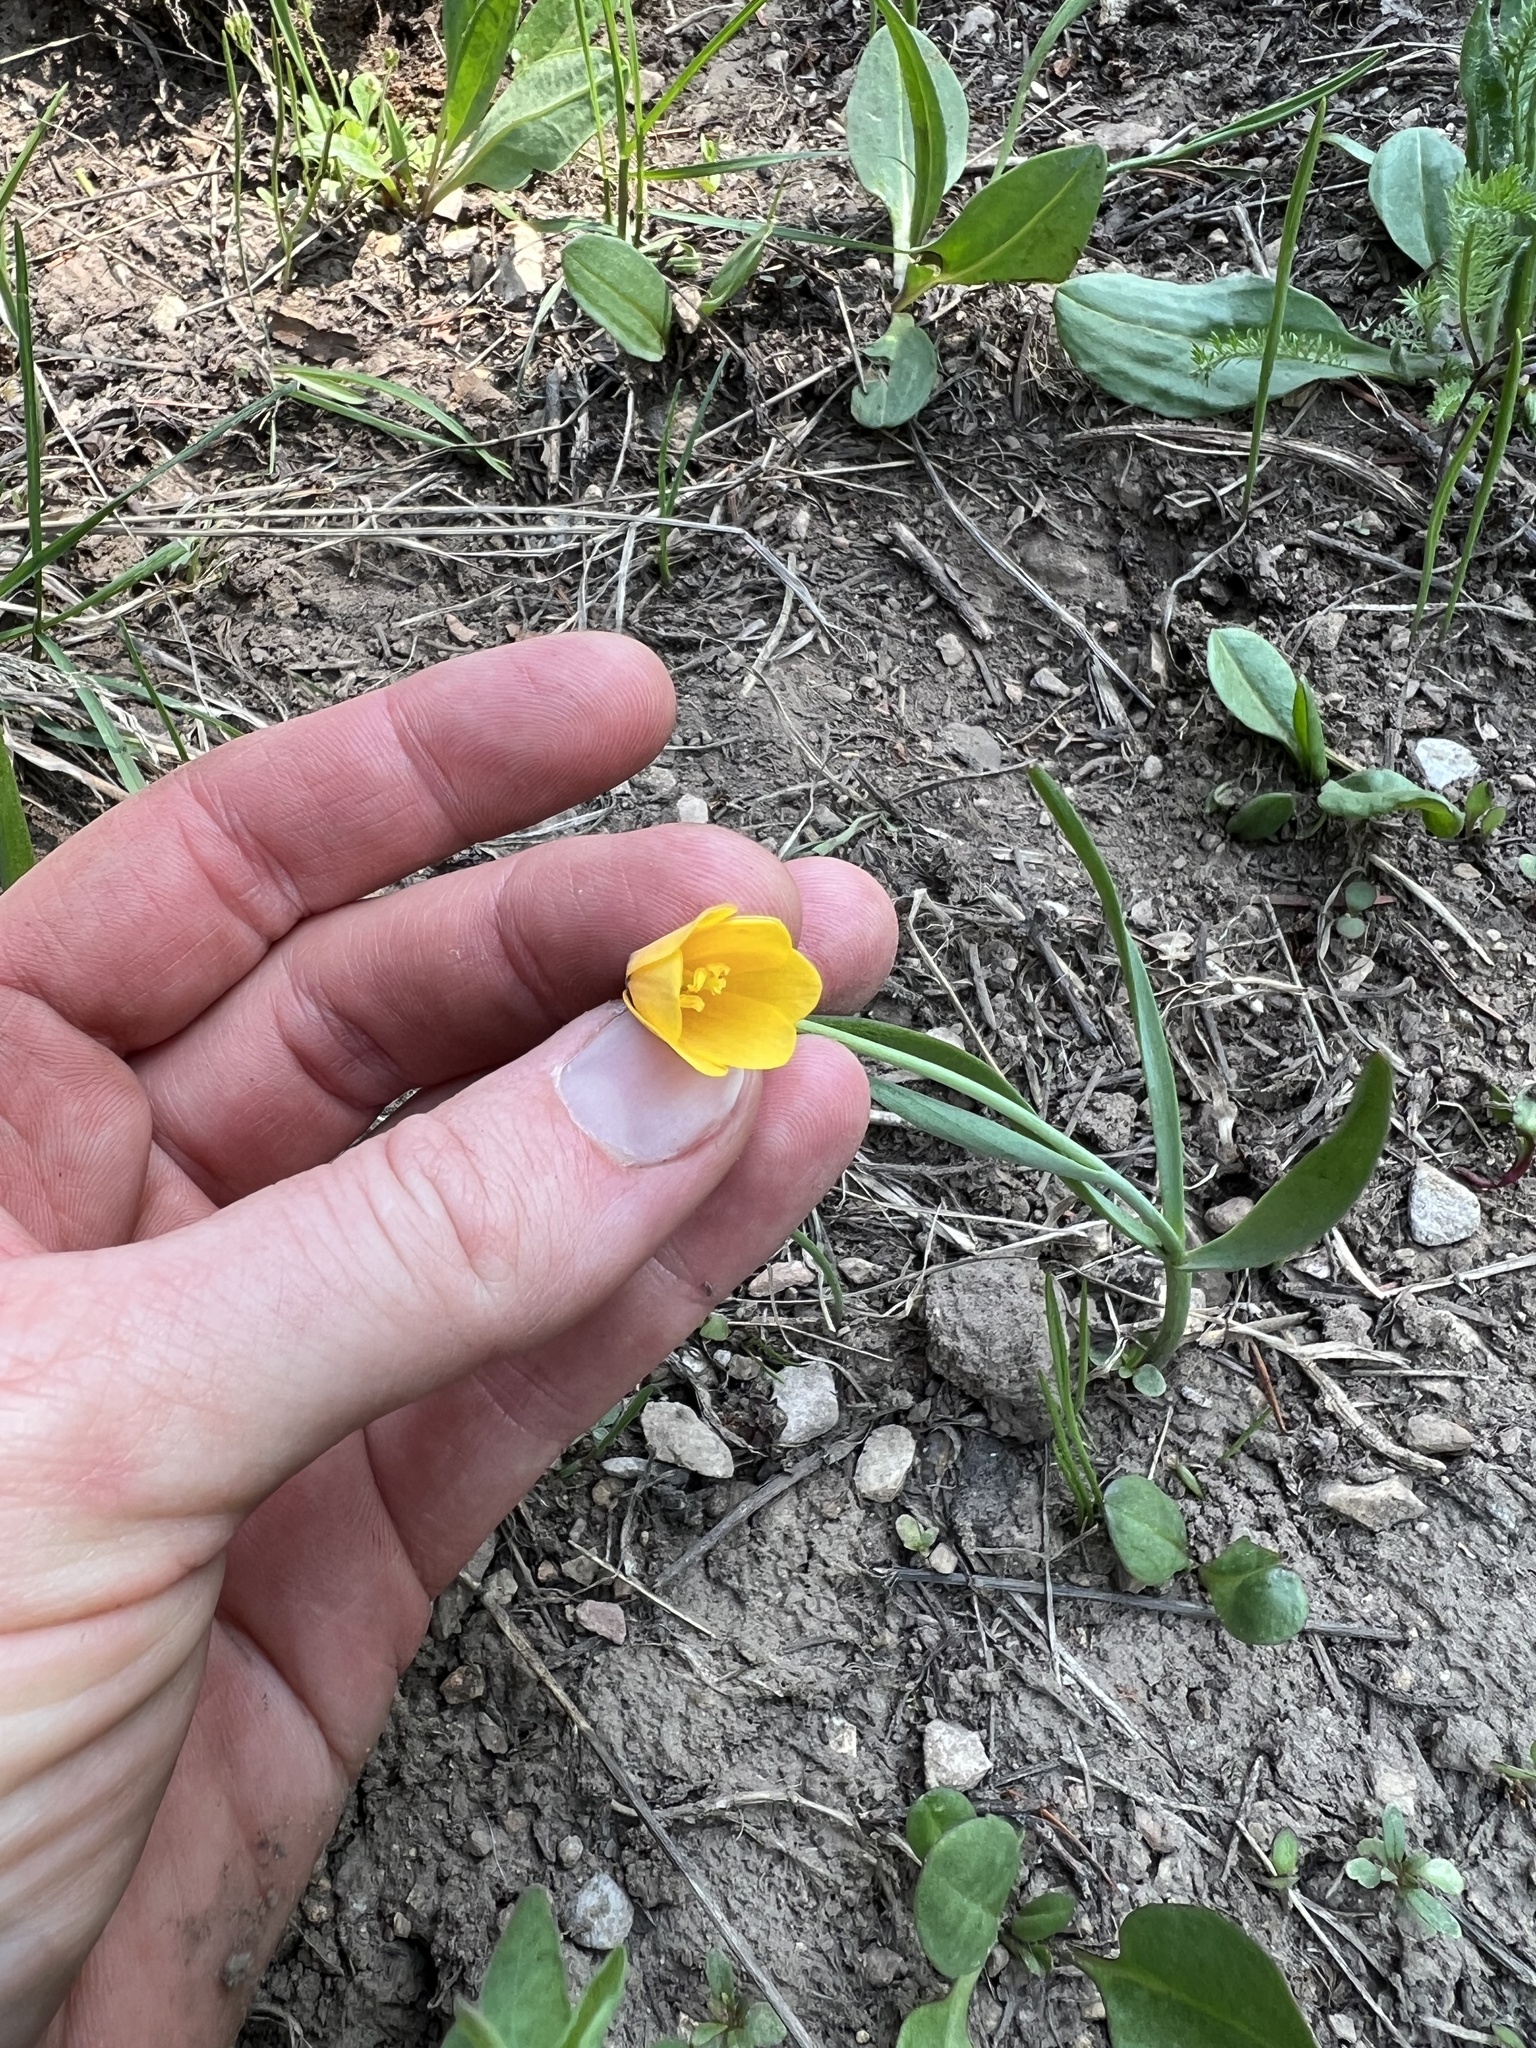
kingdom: Plantae
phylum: Tracheophyta
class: Liliopsida
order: Liliales
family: Liliaceae
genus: Fritillaria
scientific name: Fritillaria pudica
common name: Yellow fritillary
